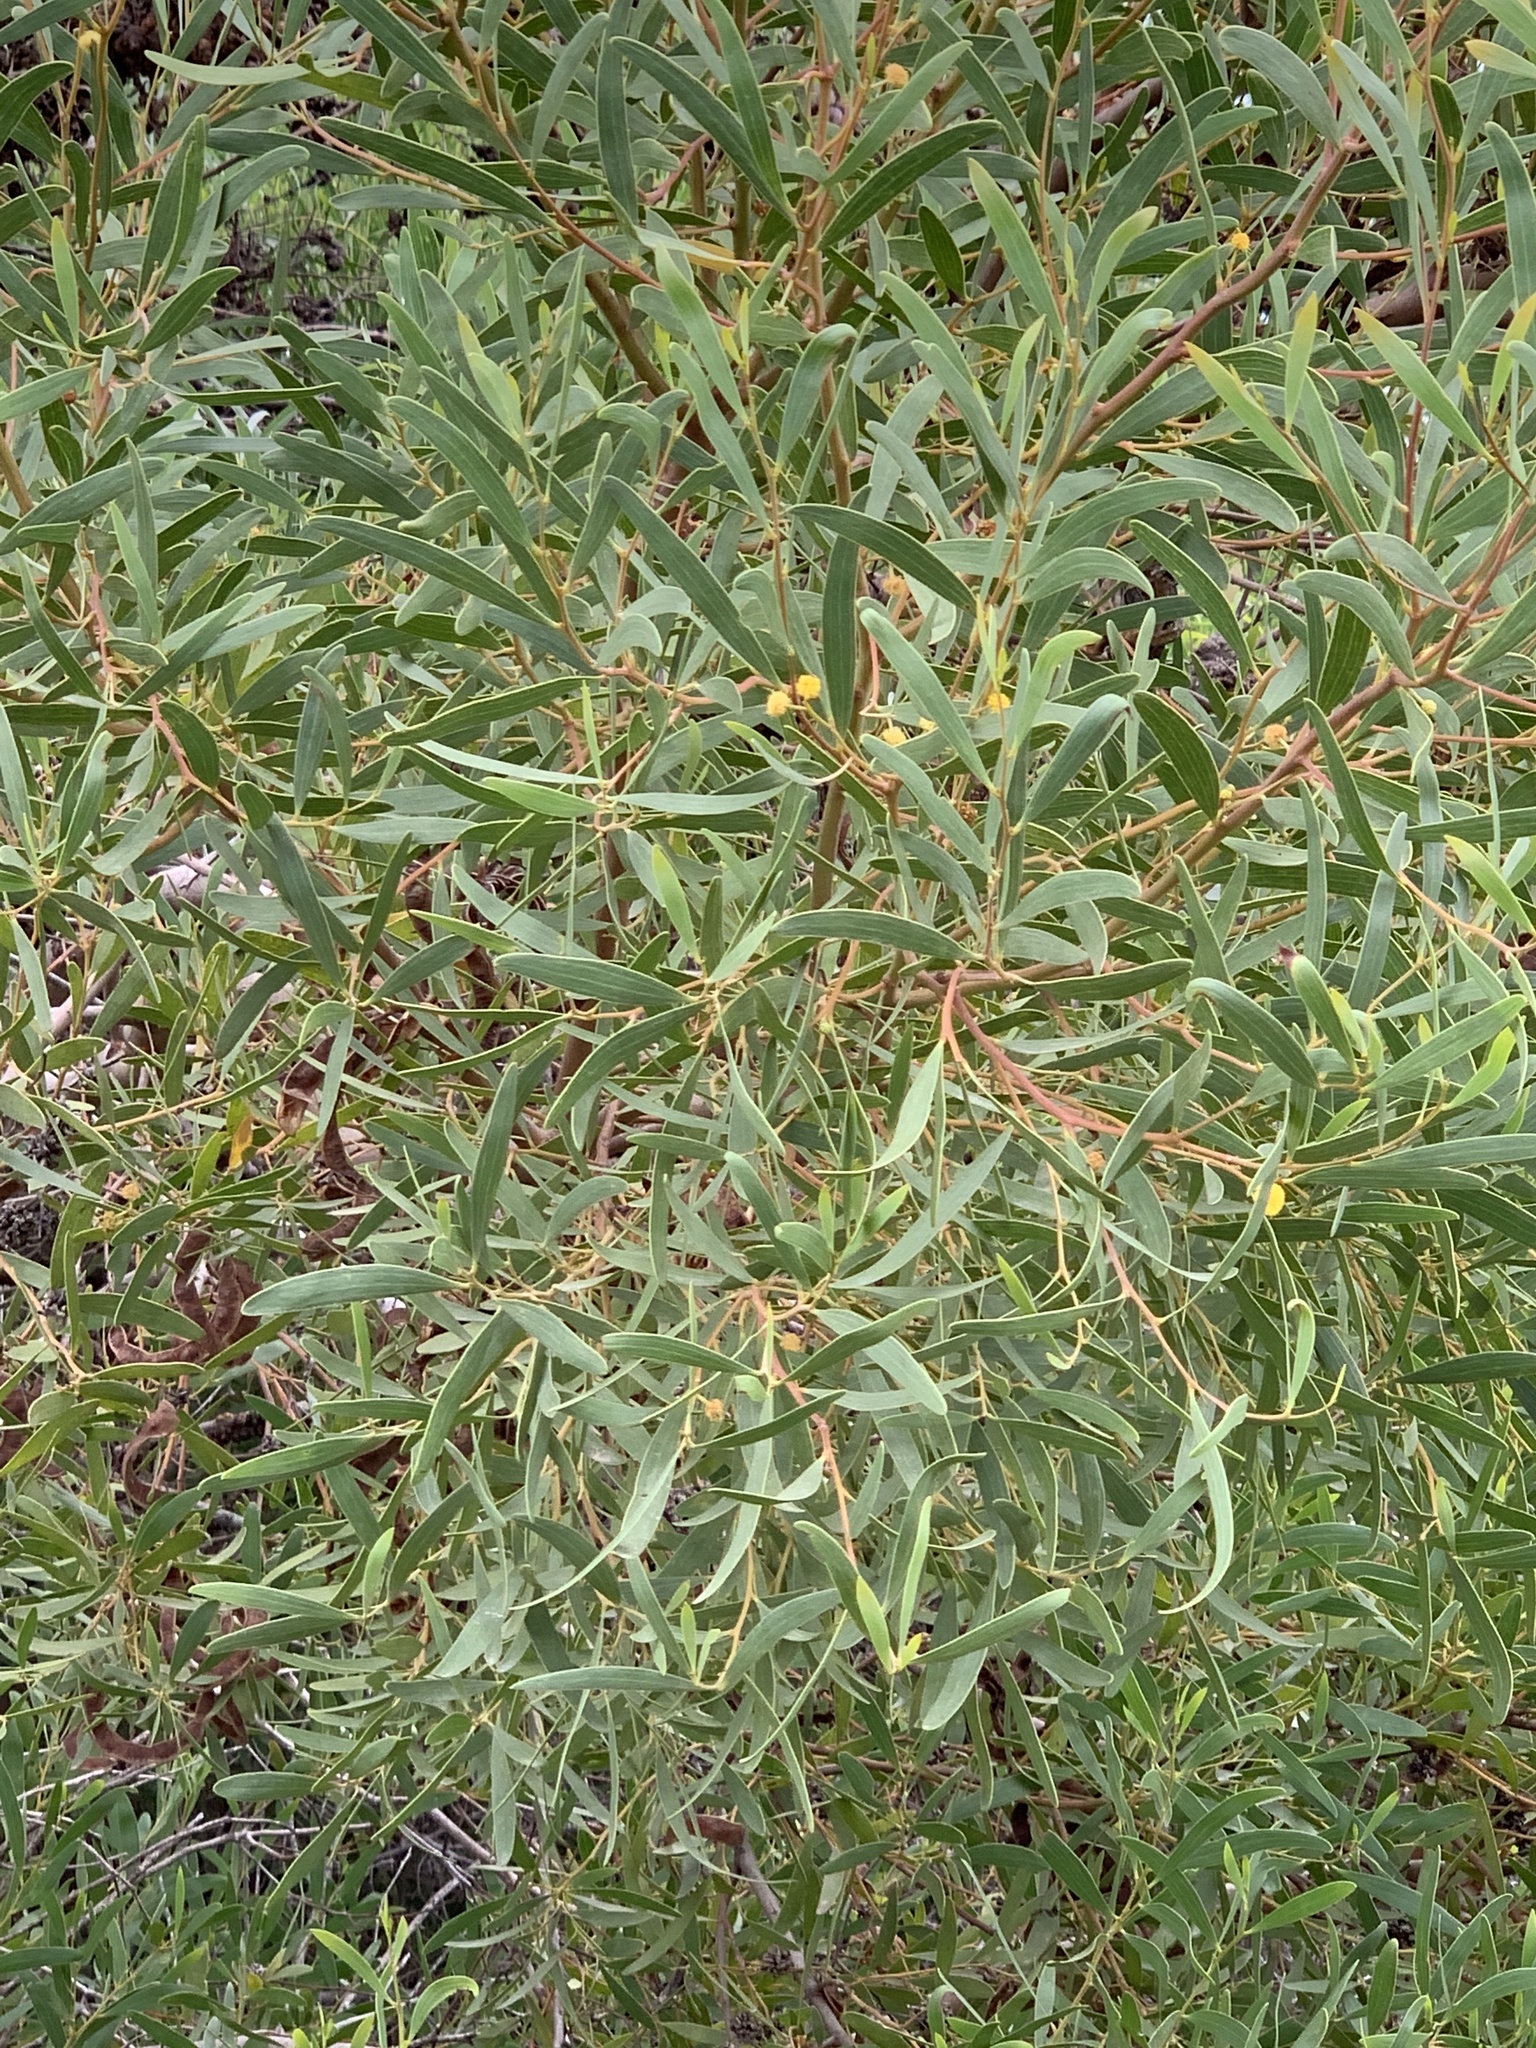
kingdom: Plantae
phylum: Tracheophyta
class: Magnoliopsida
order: Fabales
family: Fabaceae
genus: Acacia
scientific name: Acacia cyclops
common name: Coastal wattle
